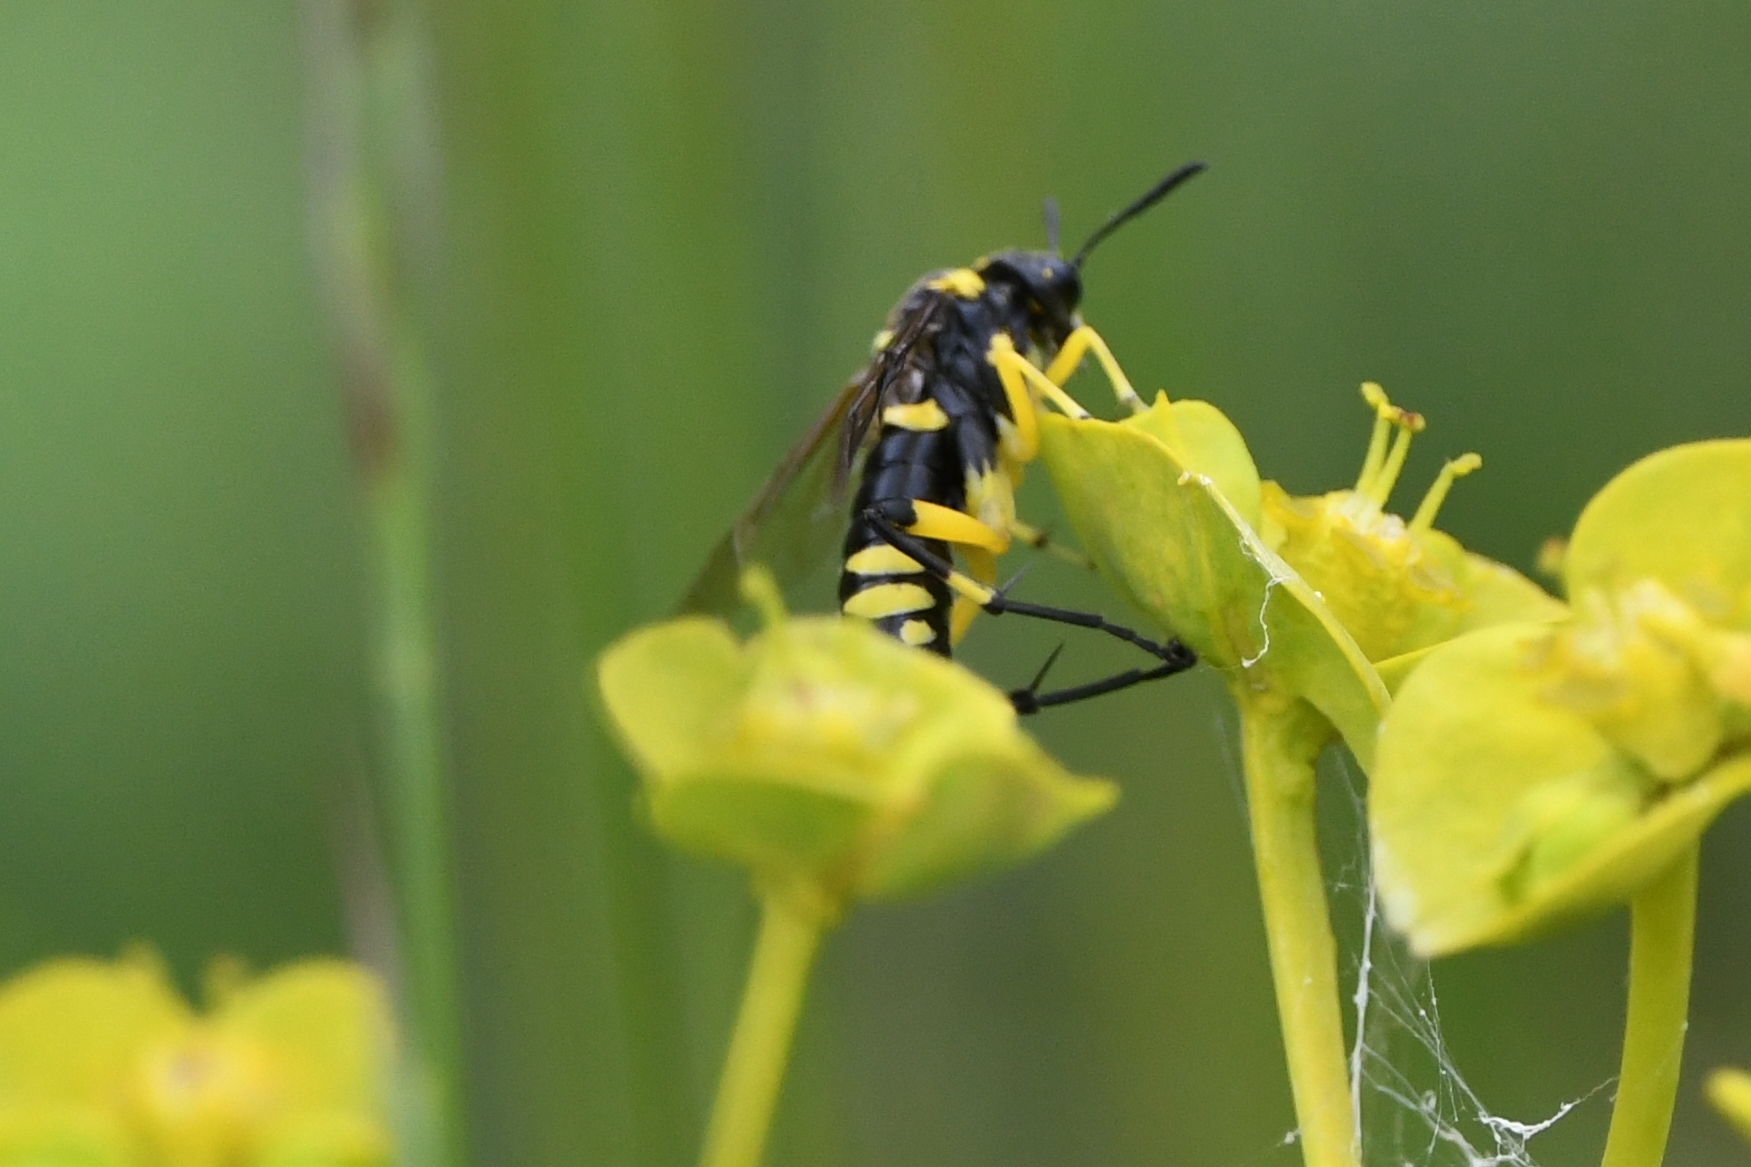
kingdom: Animalia
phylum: Arthropoda
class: Insecta
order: Hymenoptera
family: Tenthredinidae
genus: Macrophya
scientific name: Macrophya montana
